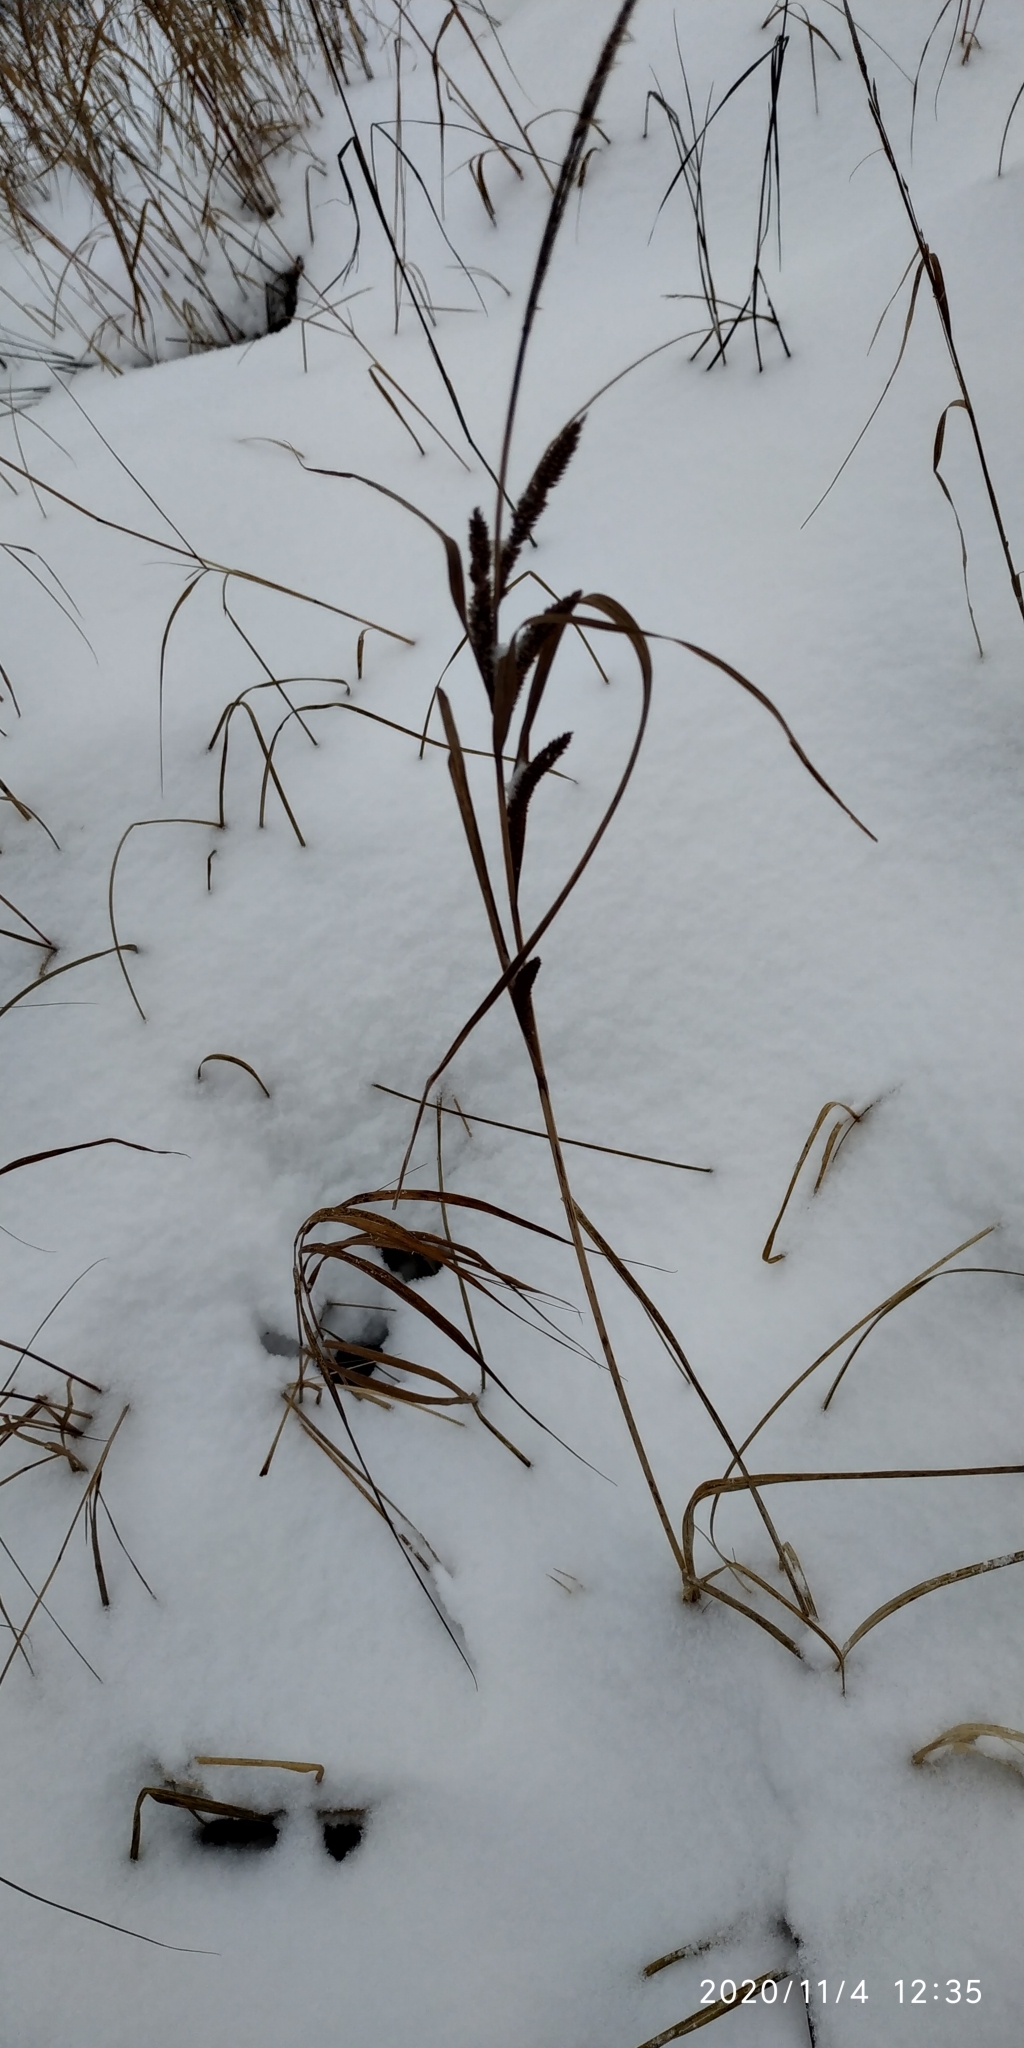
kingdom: Plantae
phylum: Tracheophyta
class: Liliopsida
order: Poales
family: Cyperaceae
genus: Carex
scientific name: Carex aquatilis
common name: Water sedge
